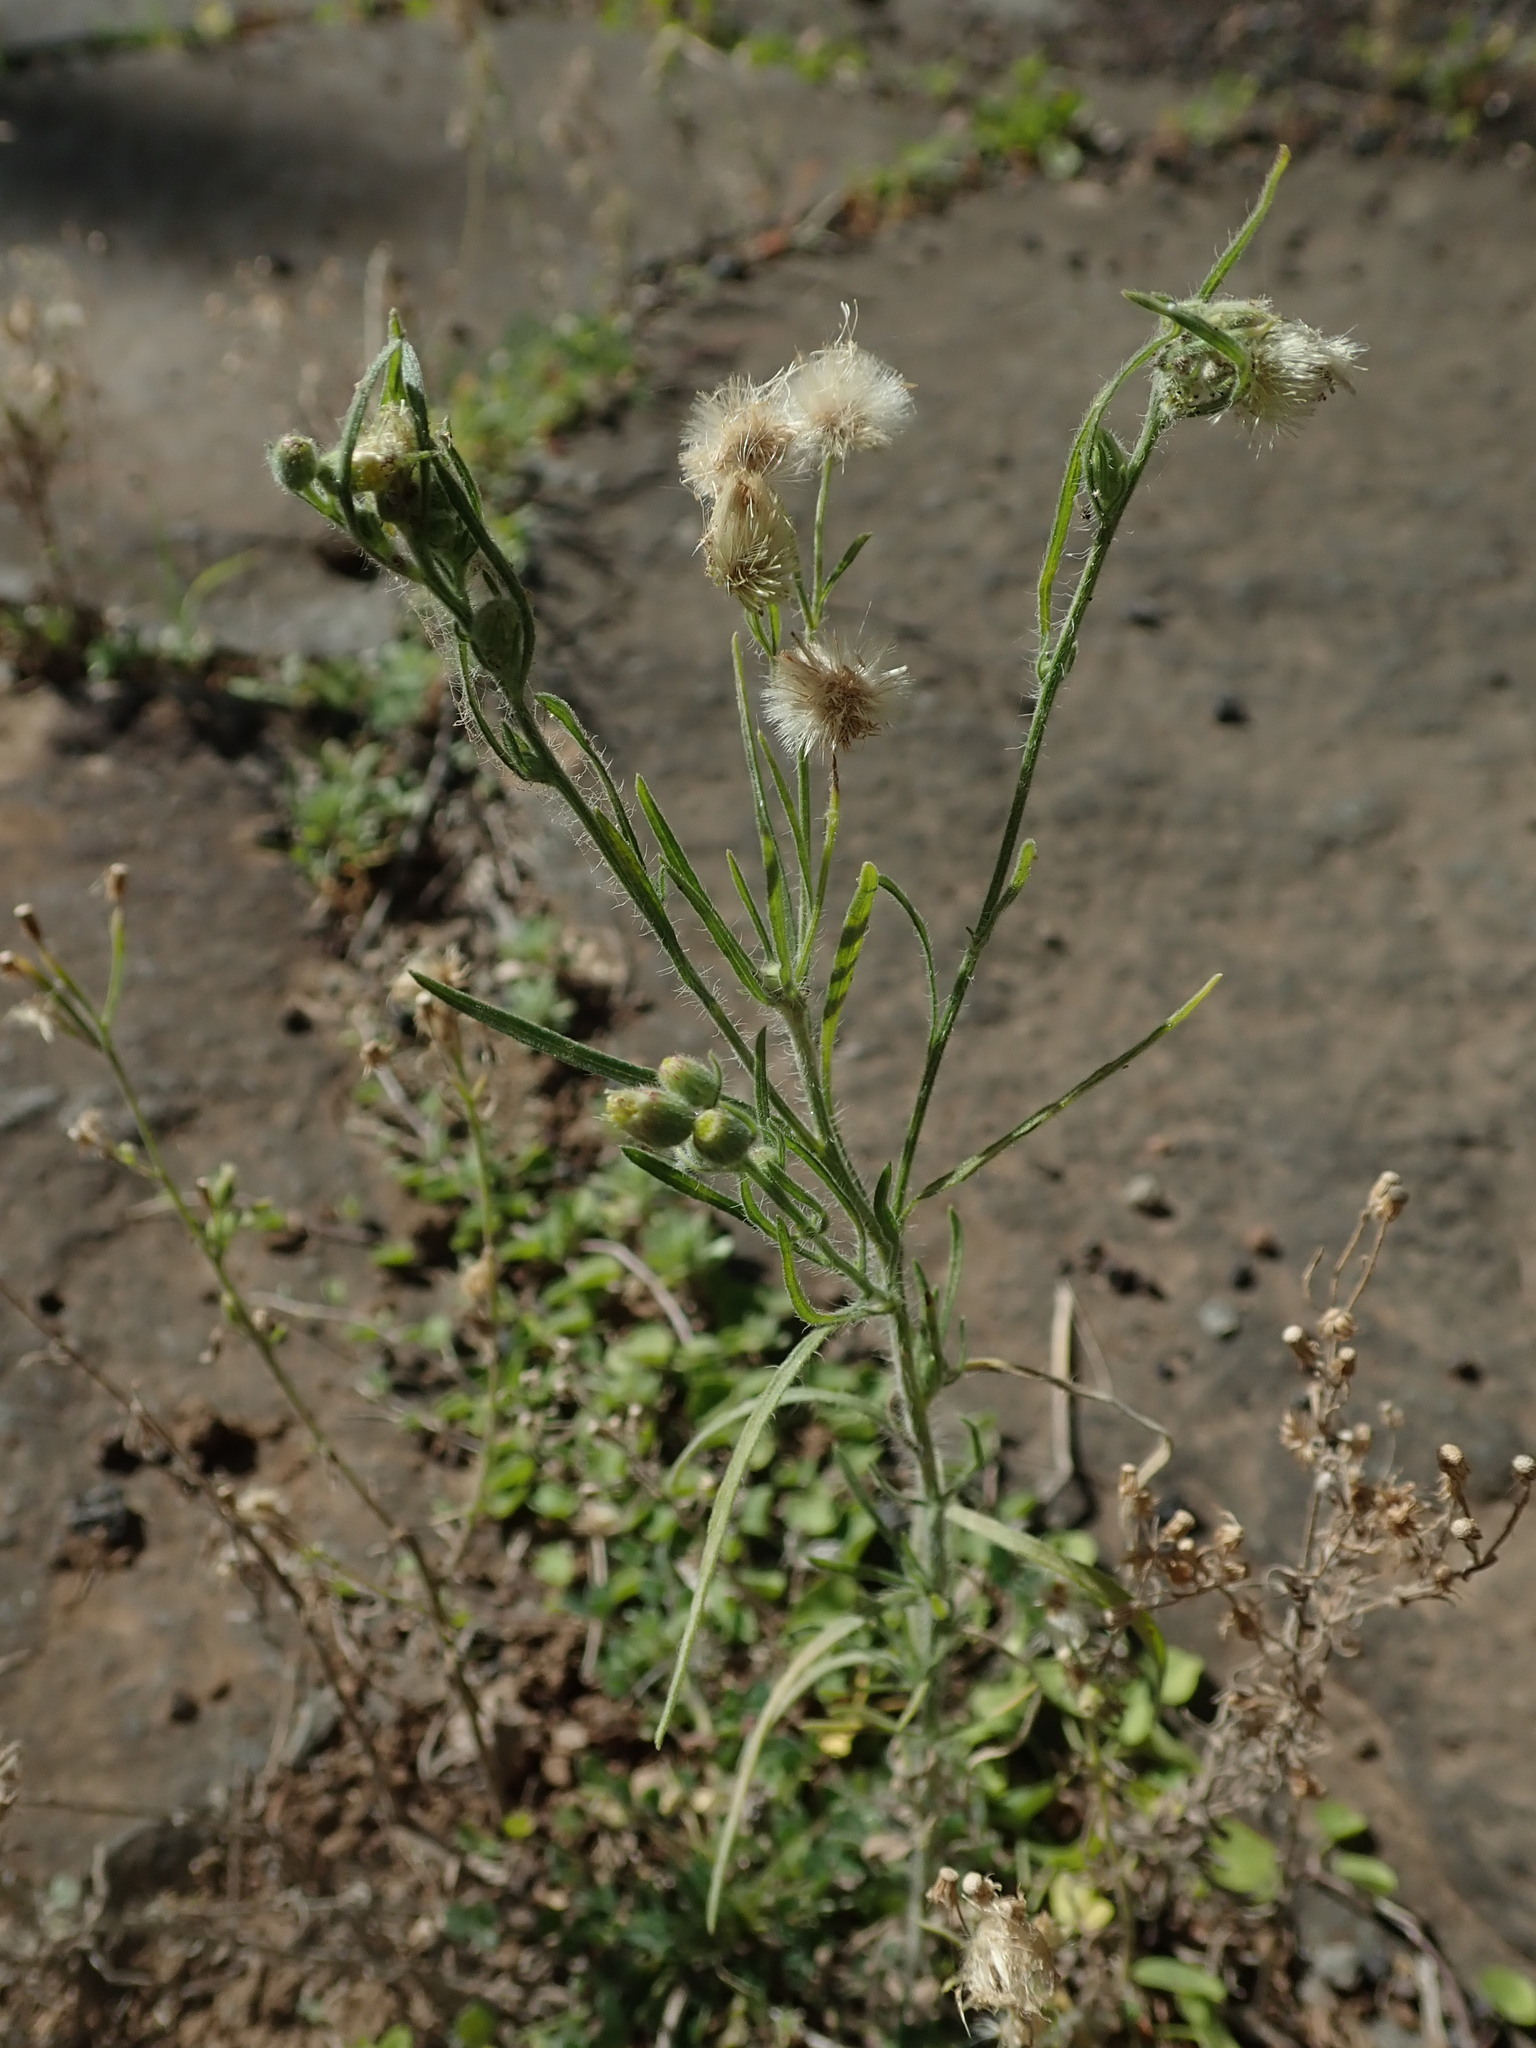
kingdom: Plantae
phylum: Tracheophyta
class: Magnoliopsida
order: Asterales
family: Asteraceae
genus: Erigeron
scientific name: Erigeron bonariensis
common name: Argentine fleabane
